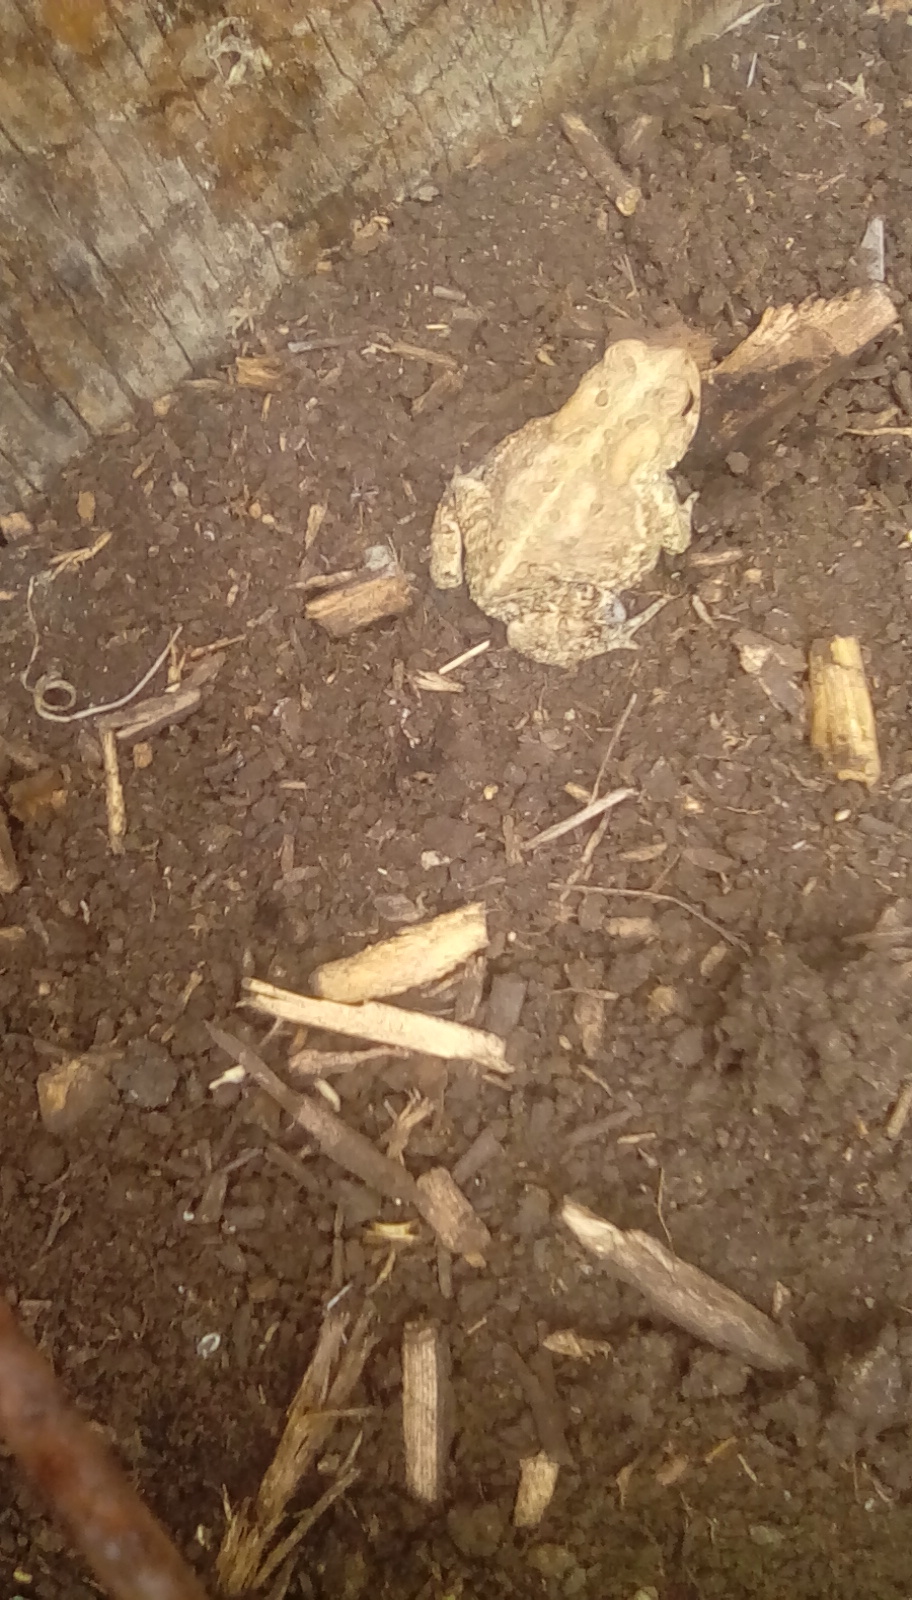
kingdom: Animalia
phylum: Chordata
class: Amphibia
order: Anura
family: Bufonidae
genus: Anaxyrus
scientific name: Anaxyrus americanus
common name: American toad
